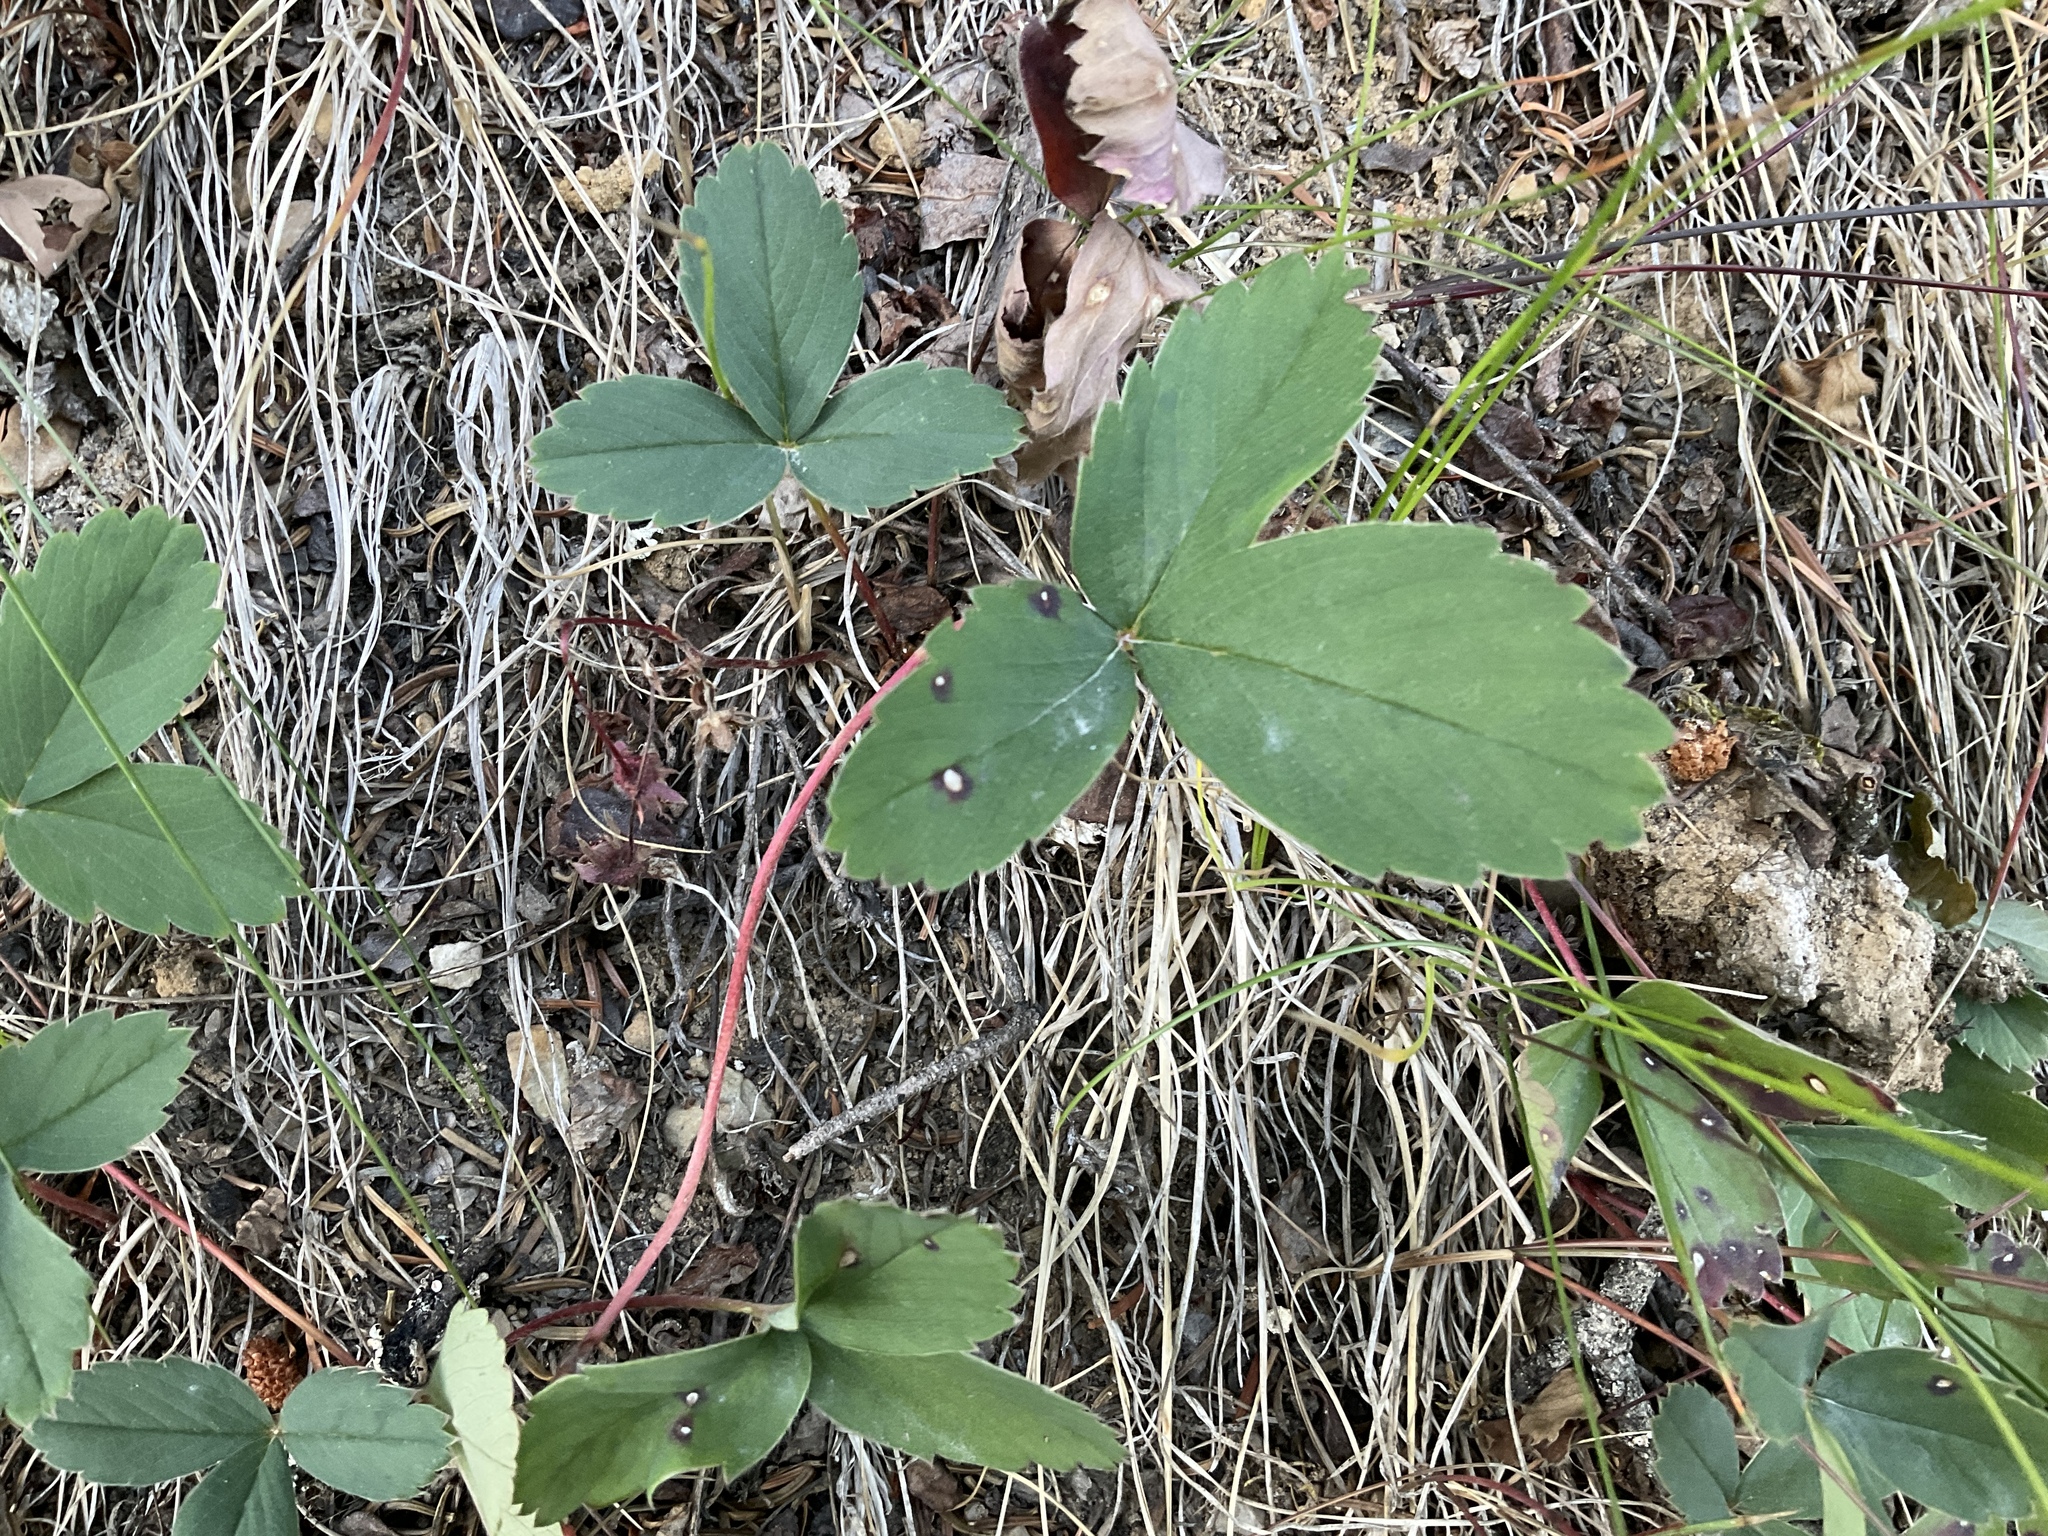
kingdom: Plantae
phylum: Tracheophyta
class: Magnoliopsida
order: Rosales
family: Rosaceae
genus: Fragaria
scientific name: Fragaria virginiana
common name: Thickleaved wild strawberry
